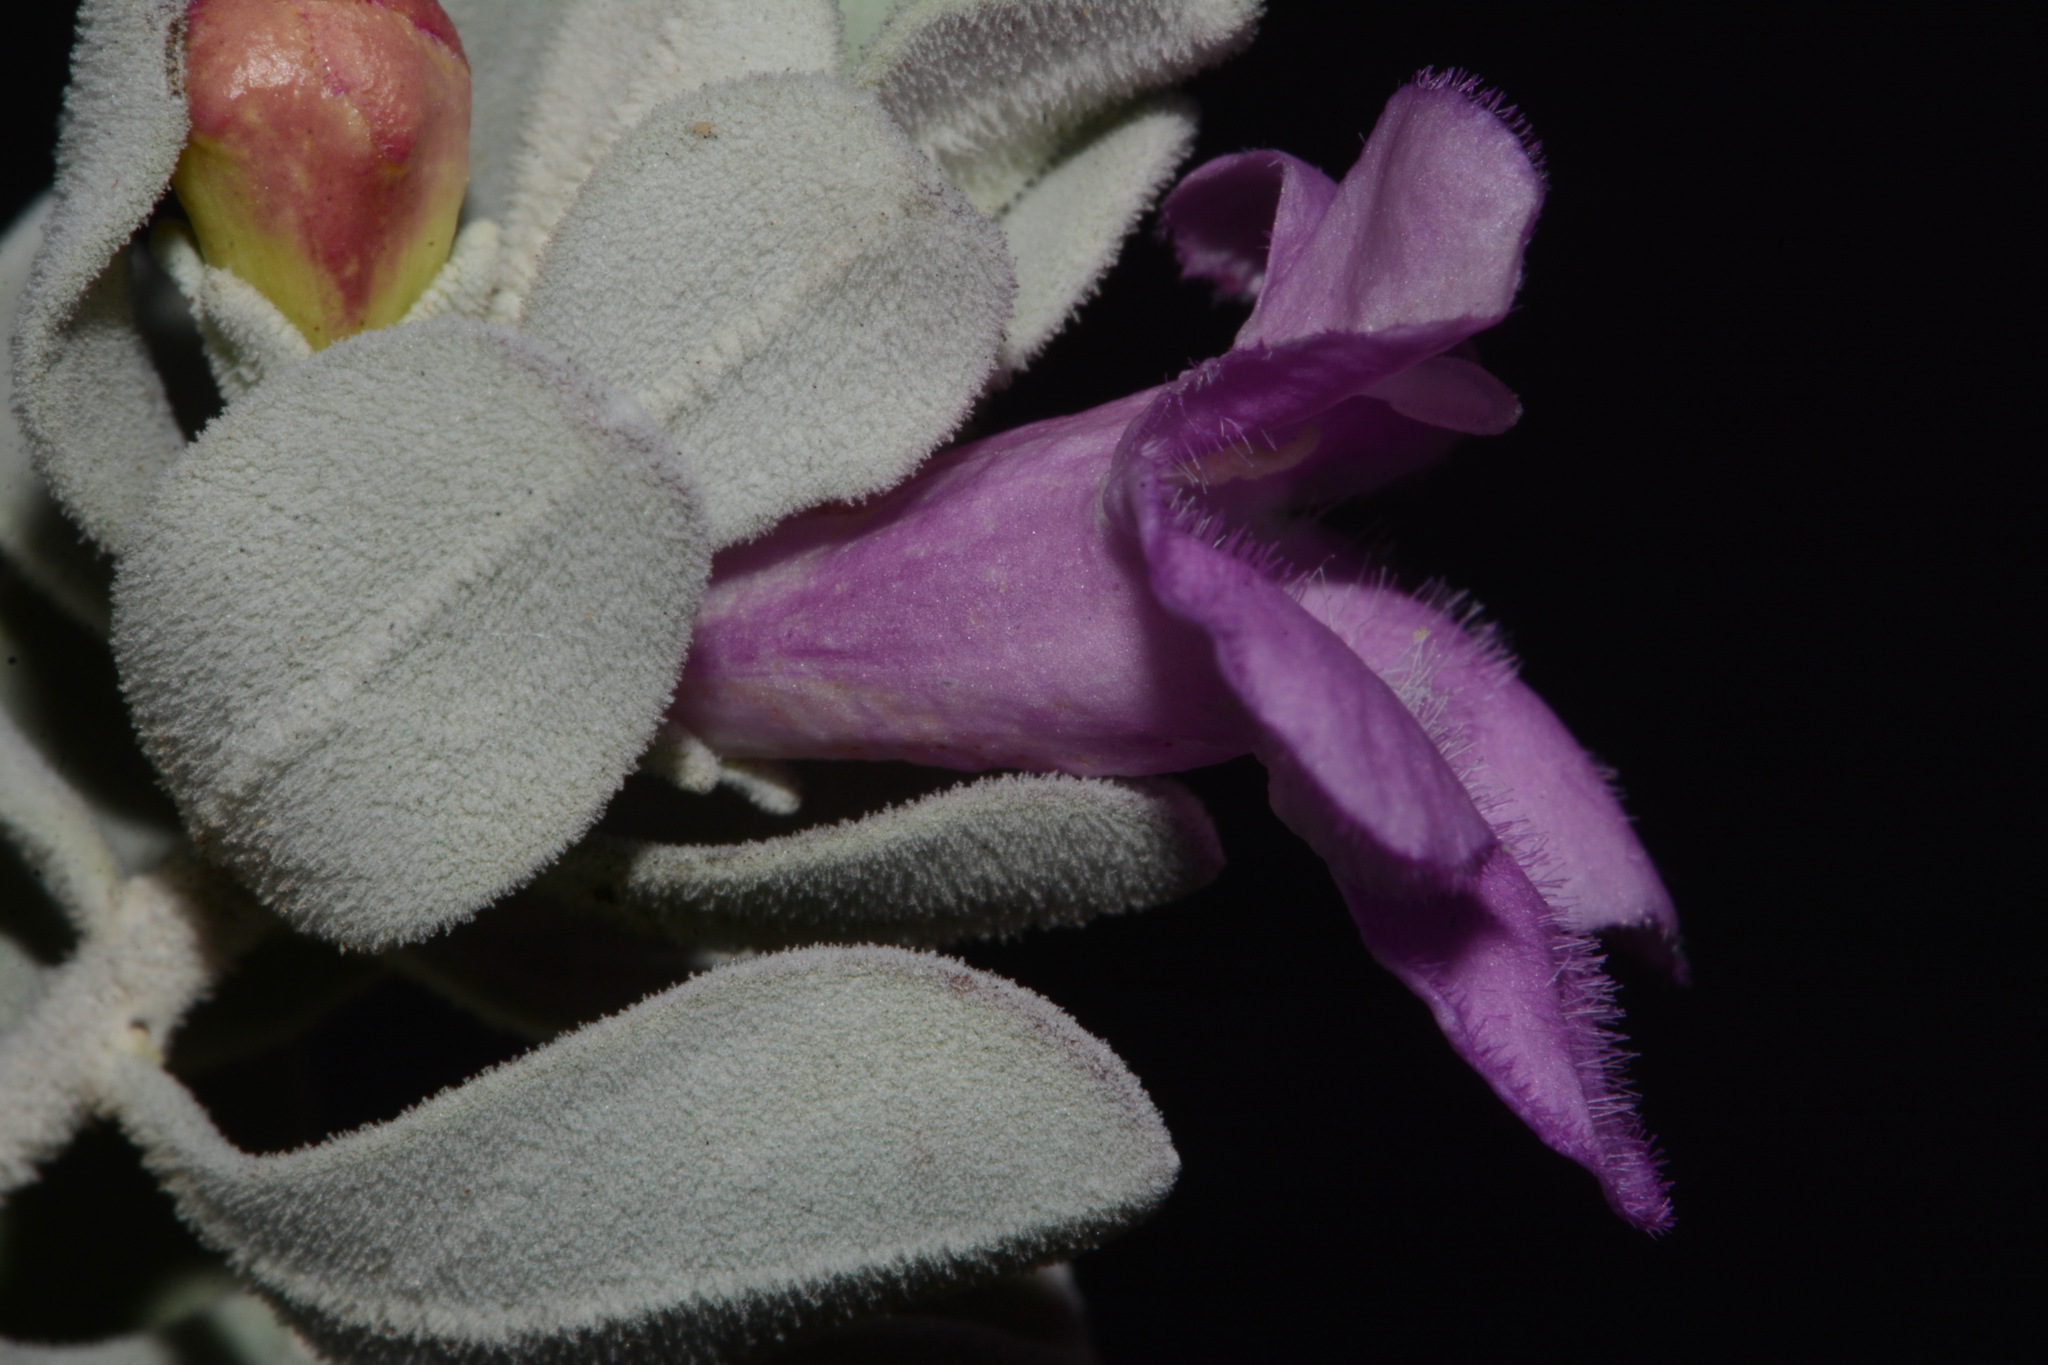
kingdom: Plantae
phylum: Tracheophyta
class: Magnoliopsida
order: Lamiales
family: Scrophulariaceae
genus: Leucophyllum
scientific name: Leucophyllum frutescens
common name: Texas silverleaf
